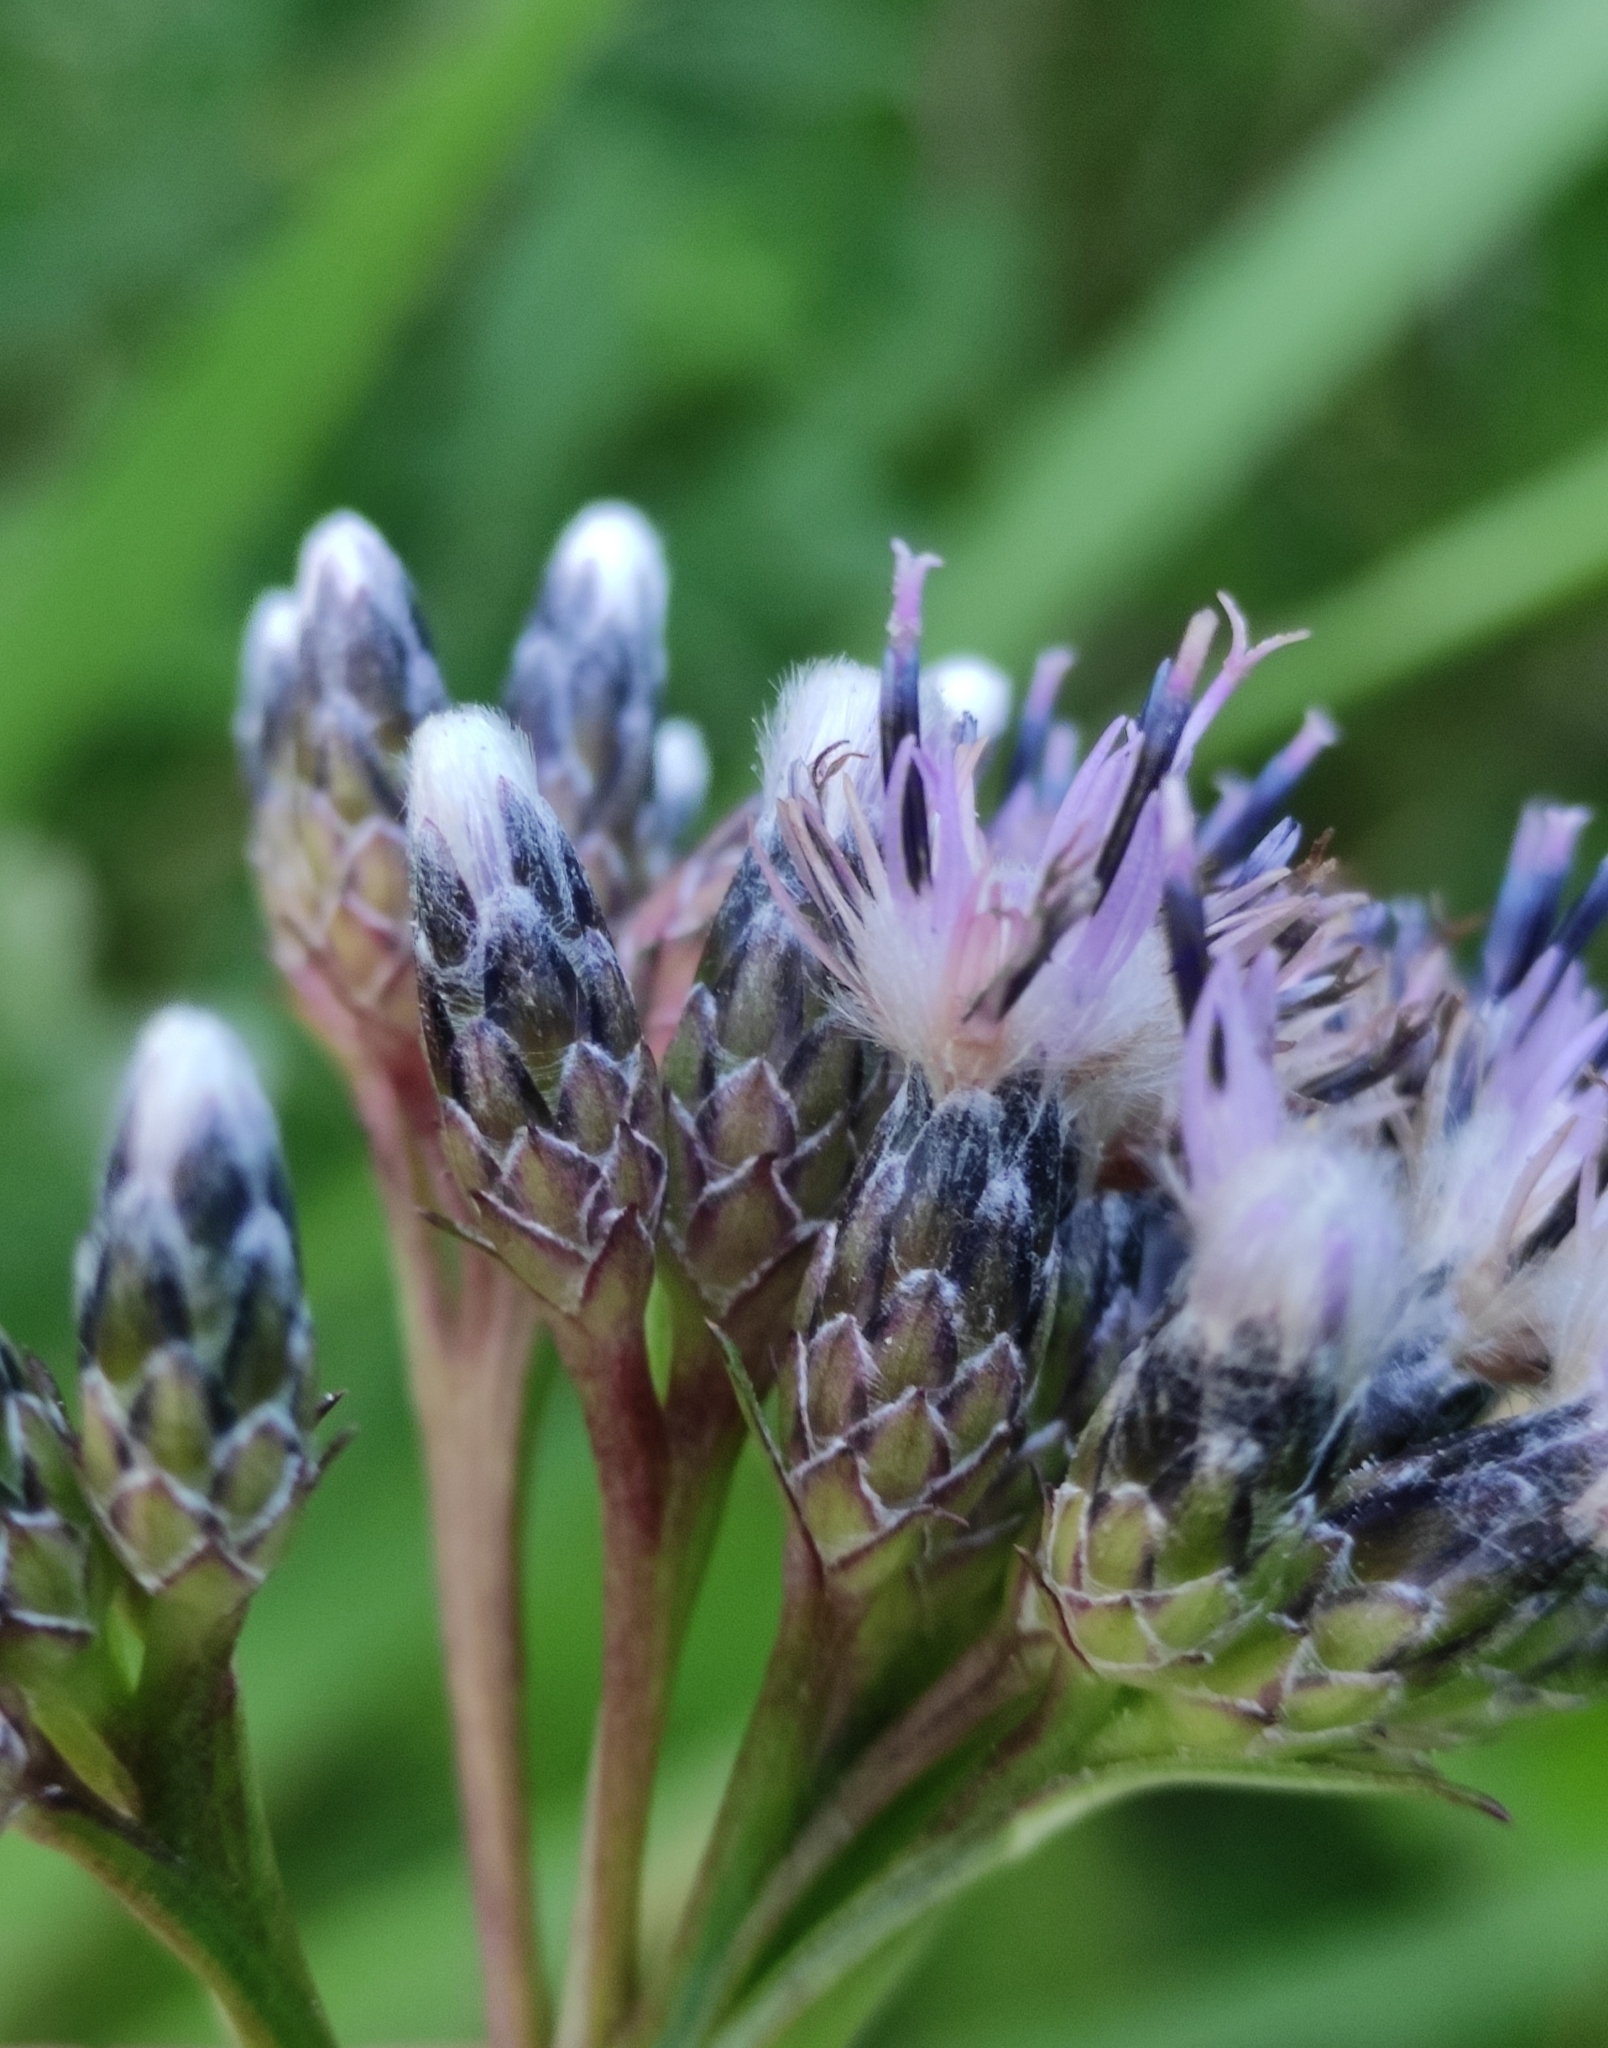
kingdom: Plantae
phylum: Tracheophyta
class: Magnoliopsida
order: Asterales
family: Asteraceae
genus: Saussurea
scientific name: Saussurea purpurata
